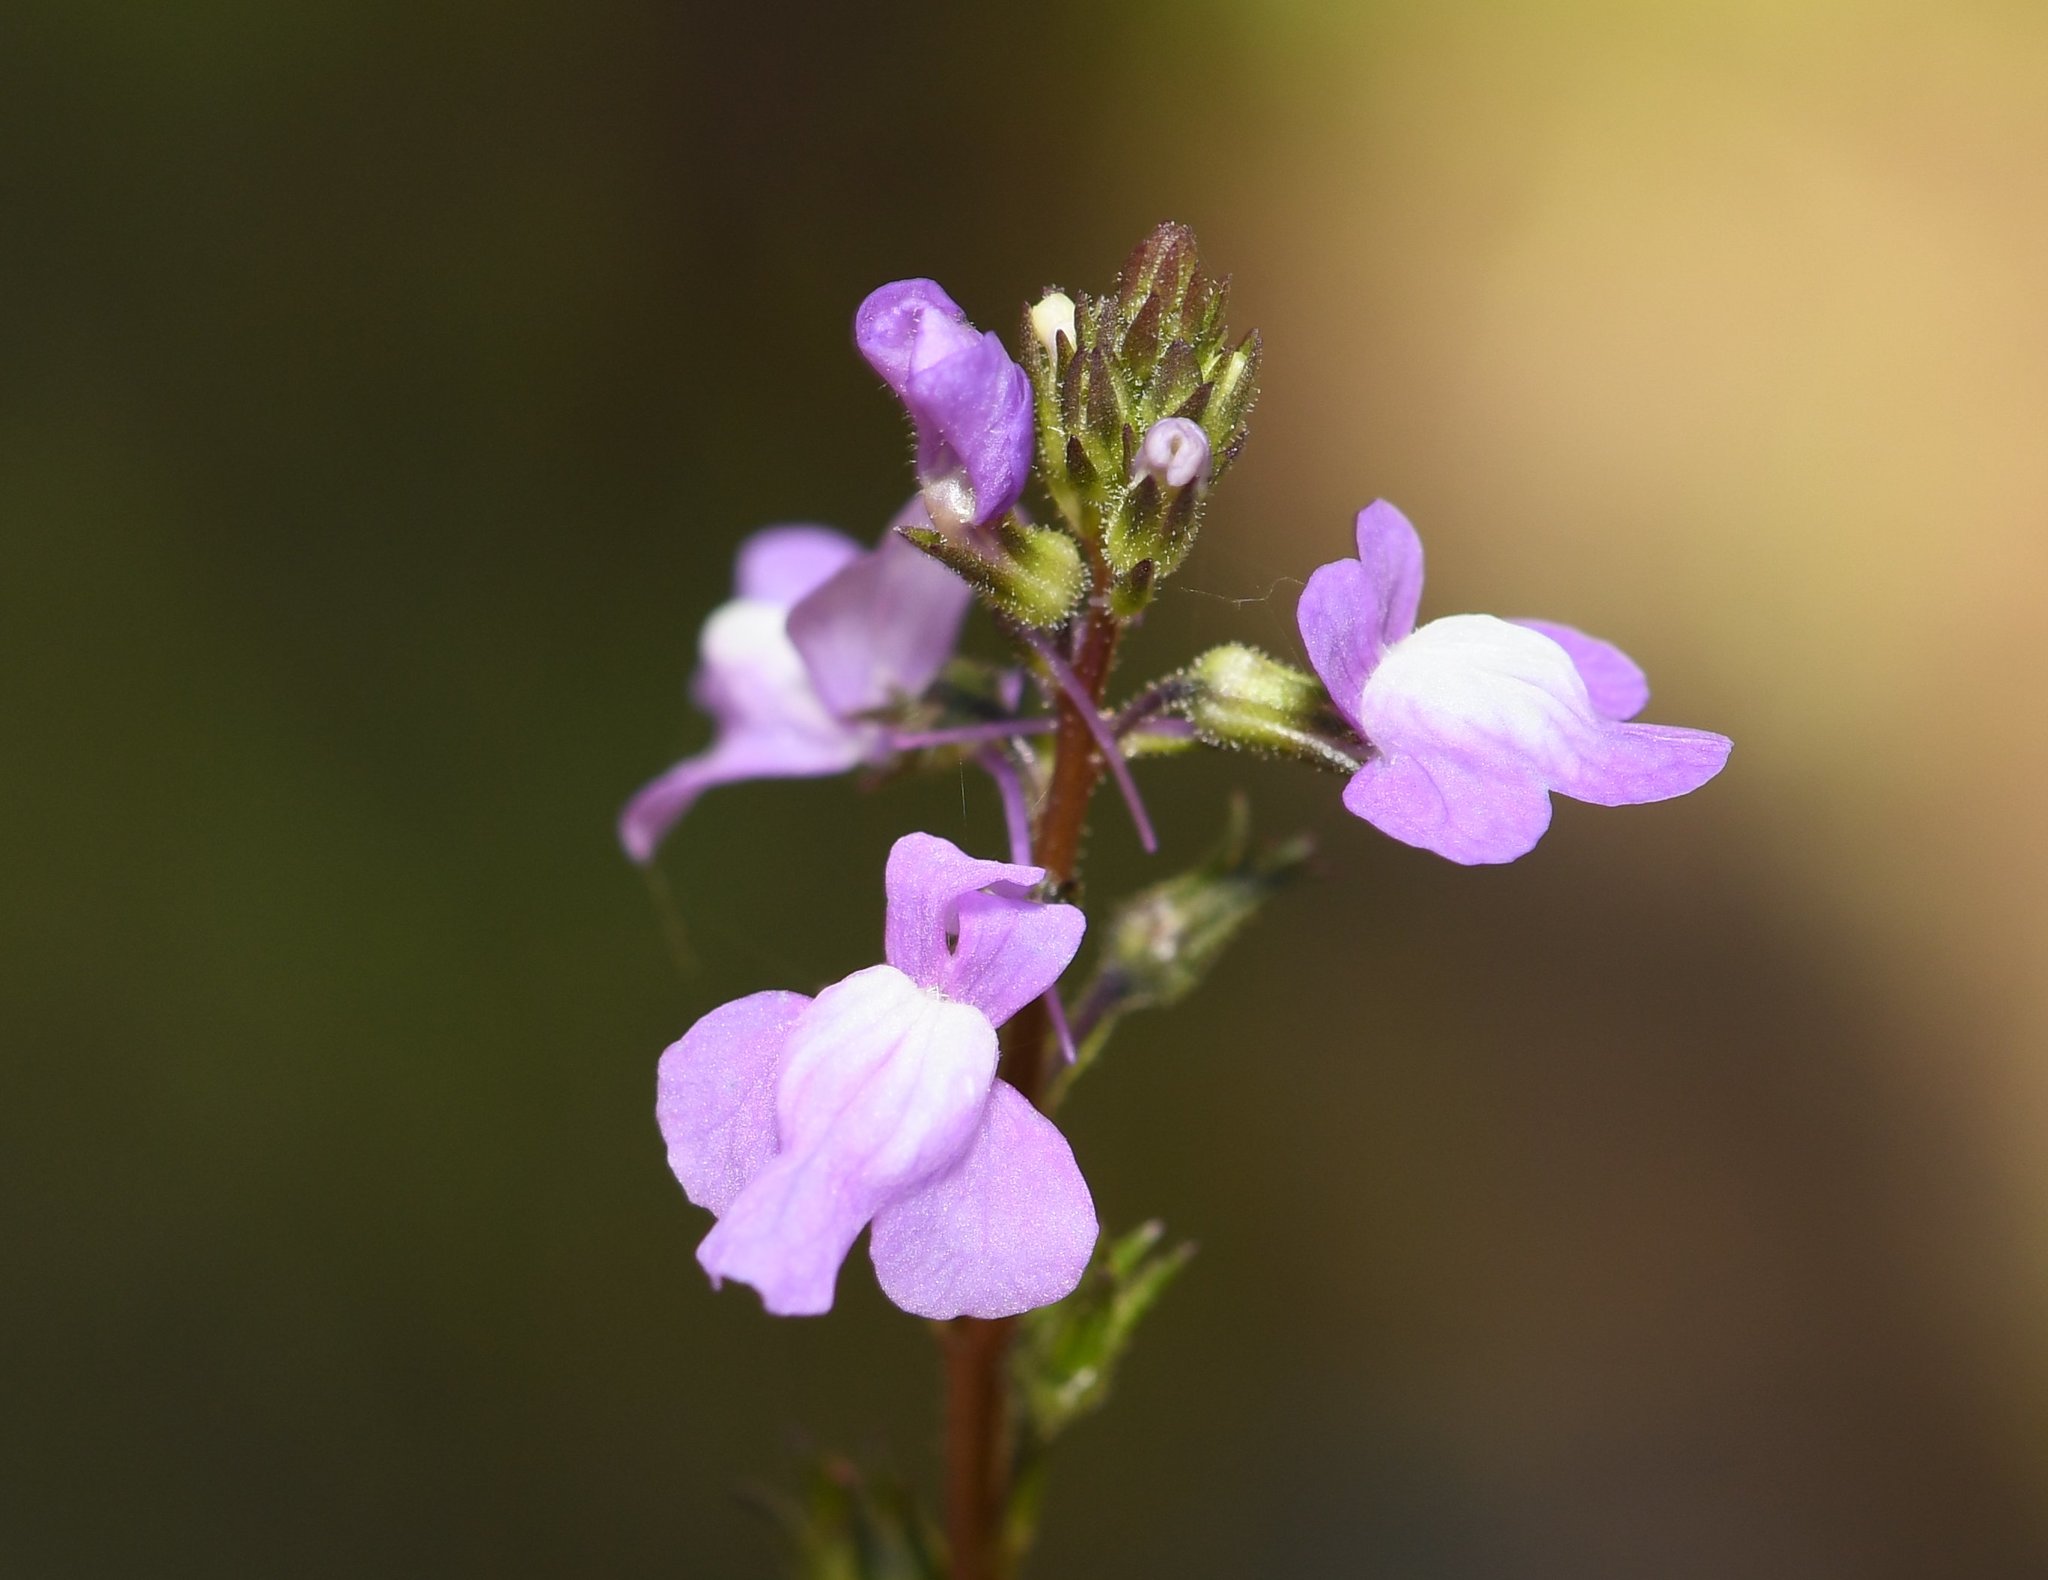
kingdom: Plantae
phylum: Tracheophyta
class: Magnoliopsida
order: Lamiales
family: Plantaginaceae
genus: Nuttallanthus
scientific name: Nuttallanthus canadensis
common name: Blue toadflax
